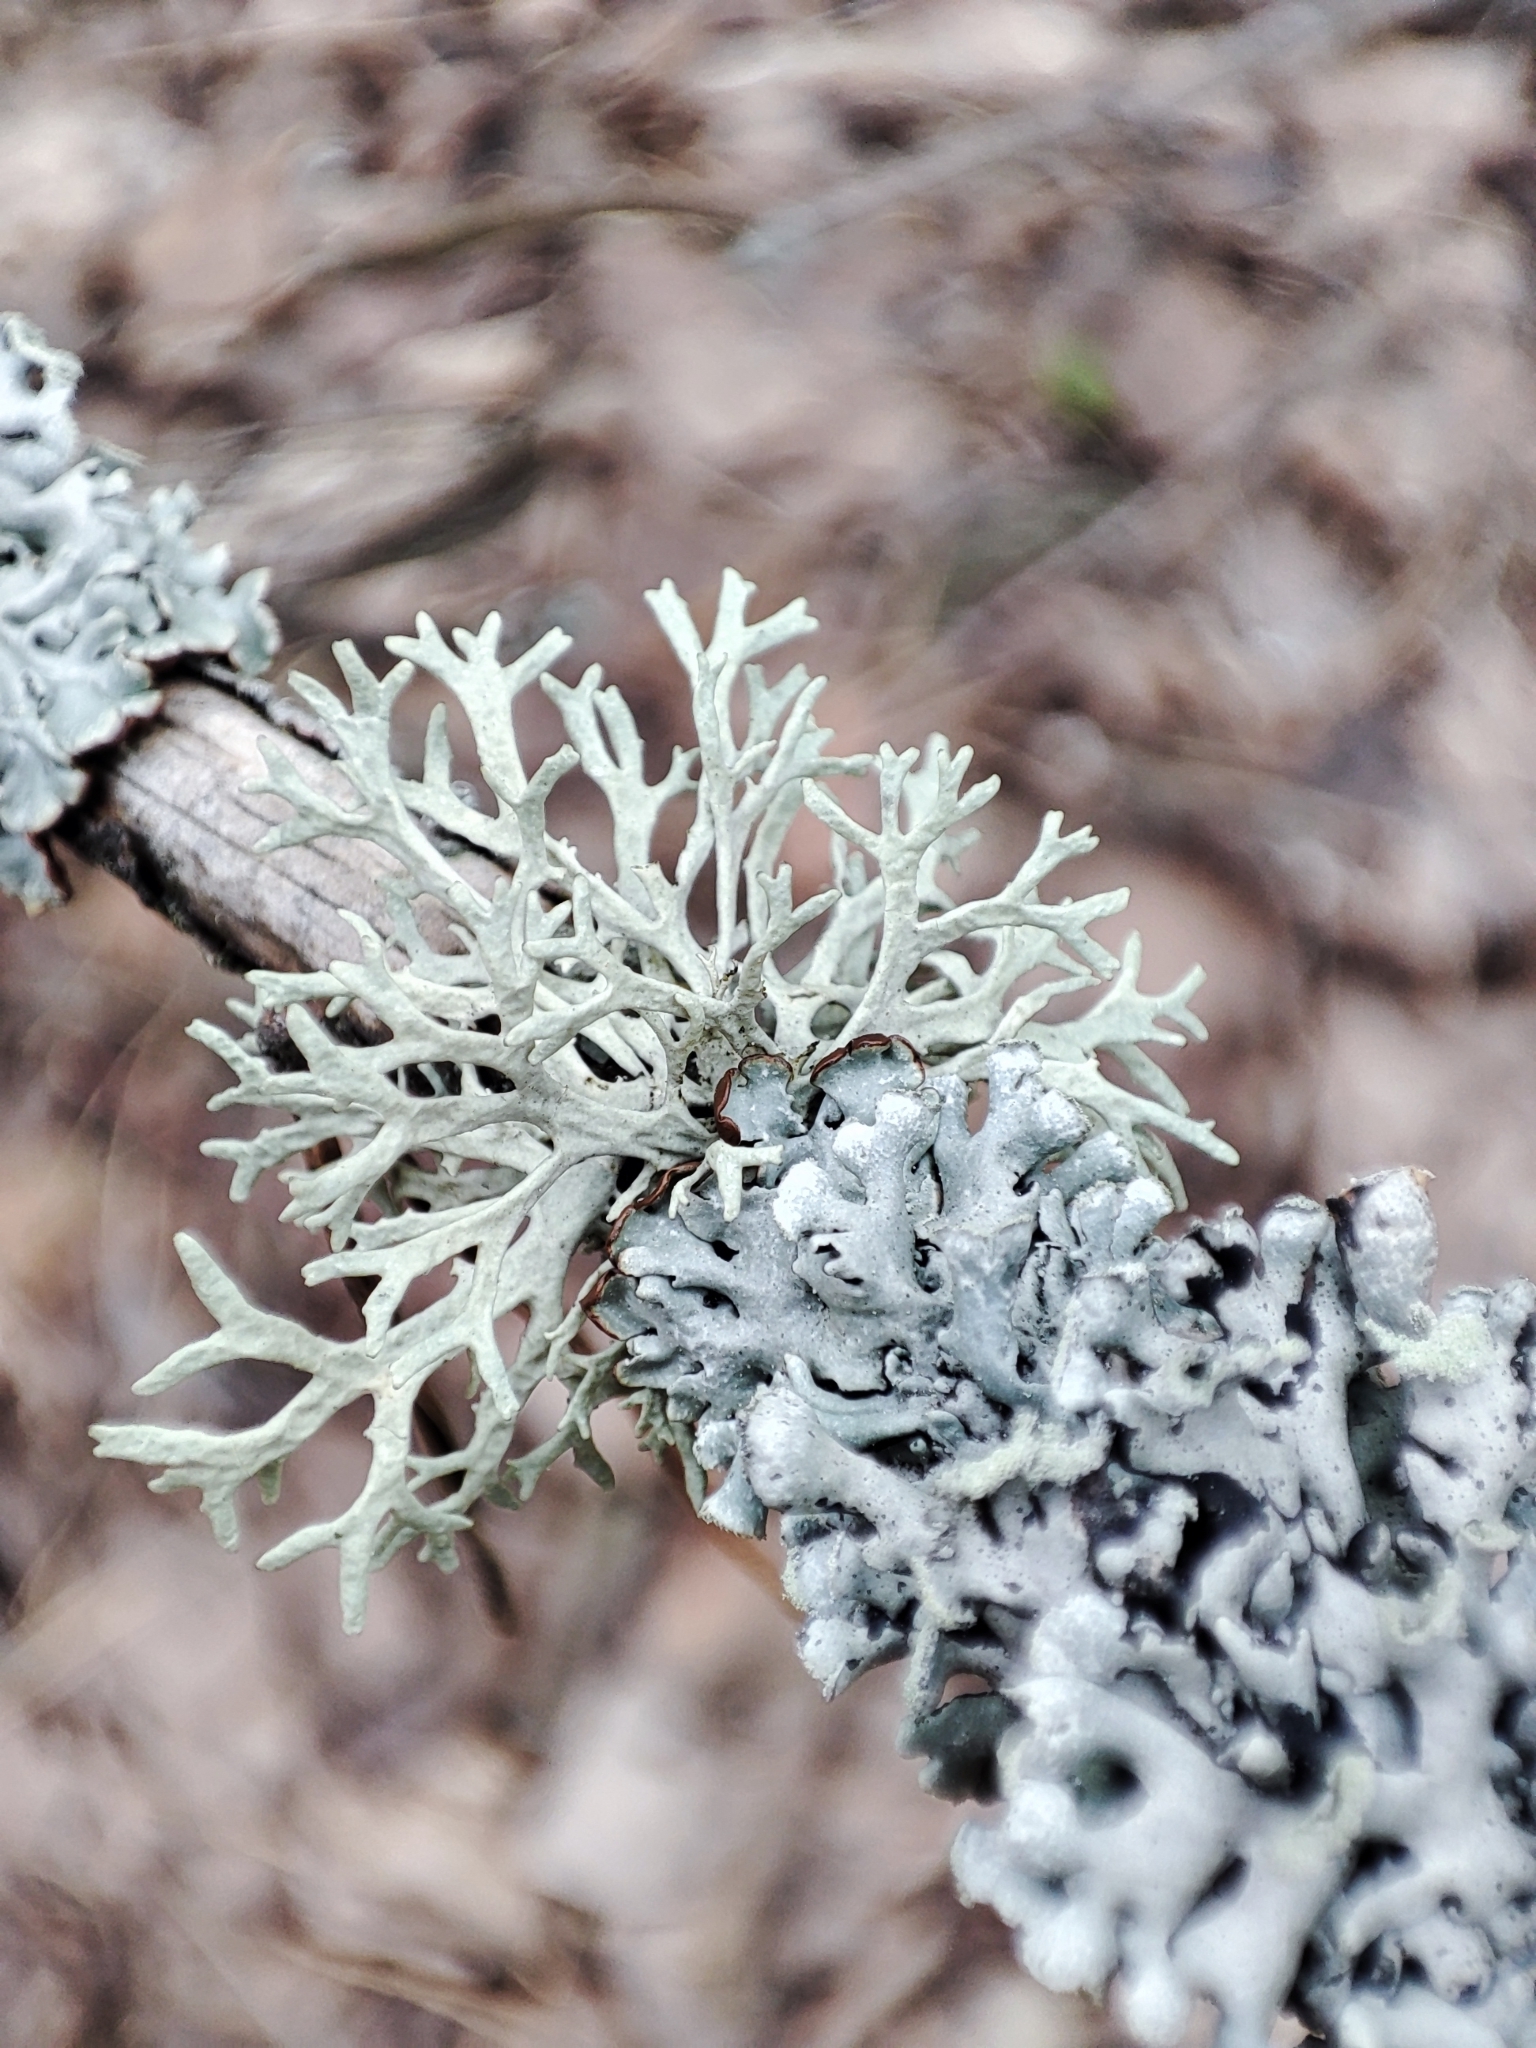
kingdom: Fungi
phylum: Ascomycota
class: Lecanoromycetes
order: Lecanorales
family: Parmeliaceae
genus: Evernia
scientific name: Evernia prunastri
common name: Oak moss
